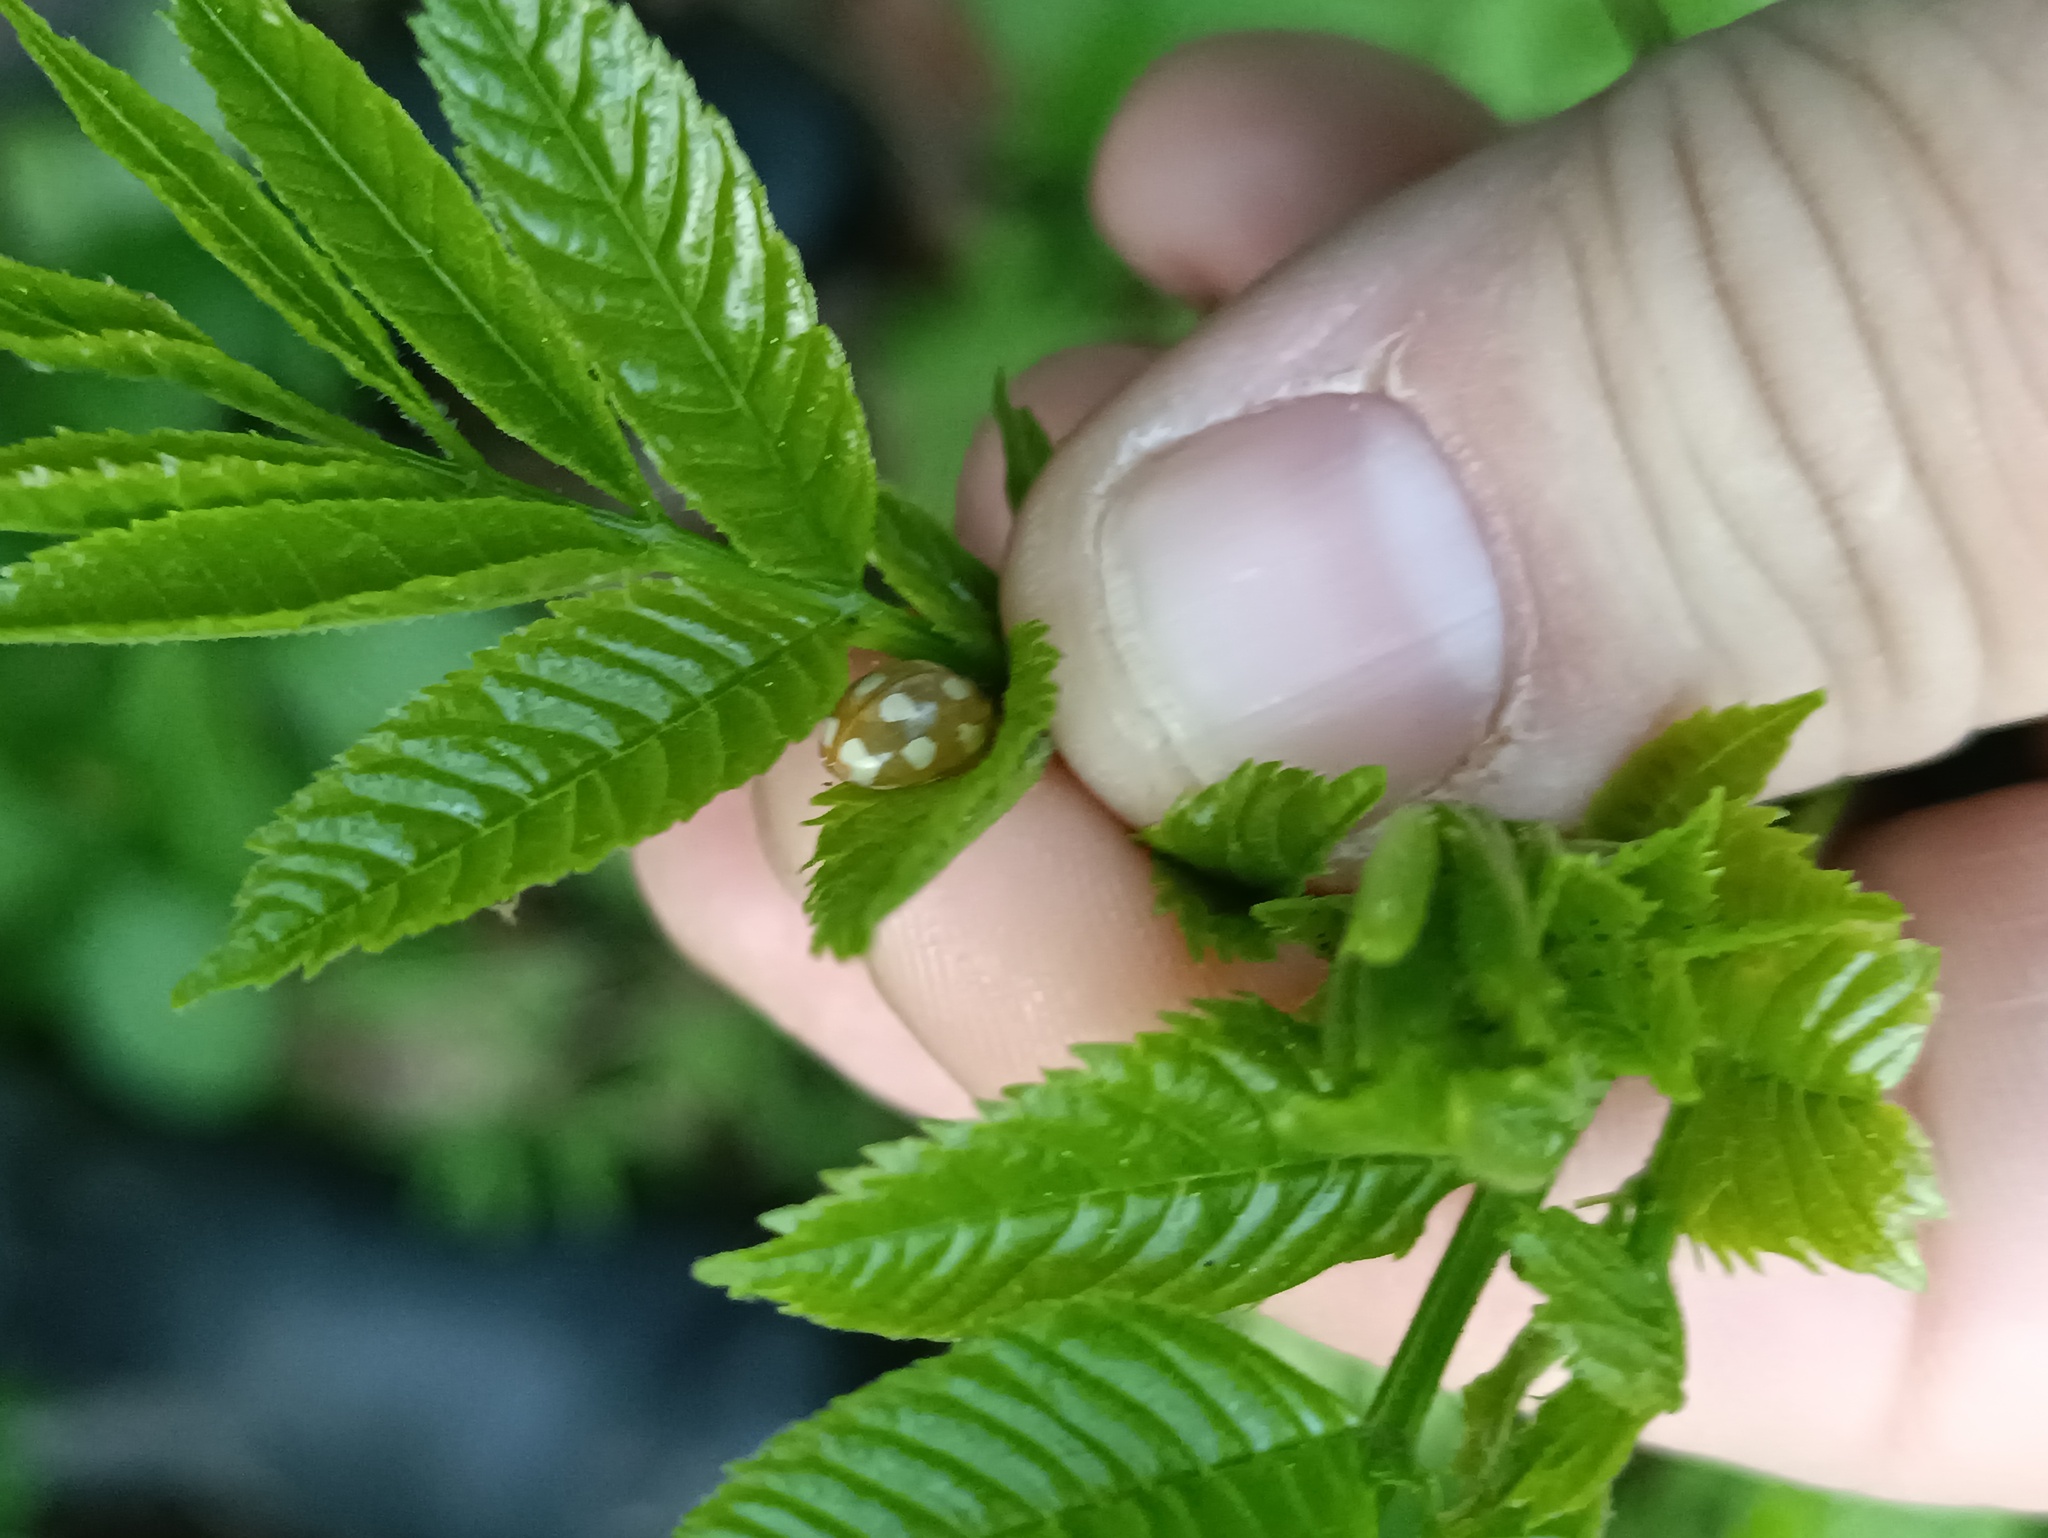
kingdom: Animalia
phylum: Arthropoda
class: Insecta
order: Coleoptera
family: Coccinellidae
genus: Calvia
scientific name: Calvia decemguttata
